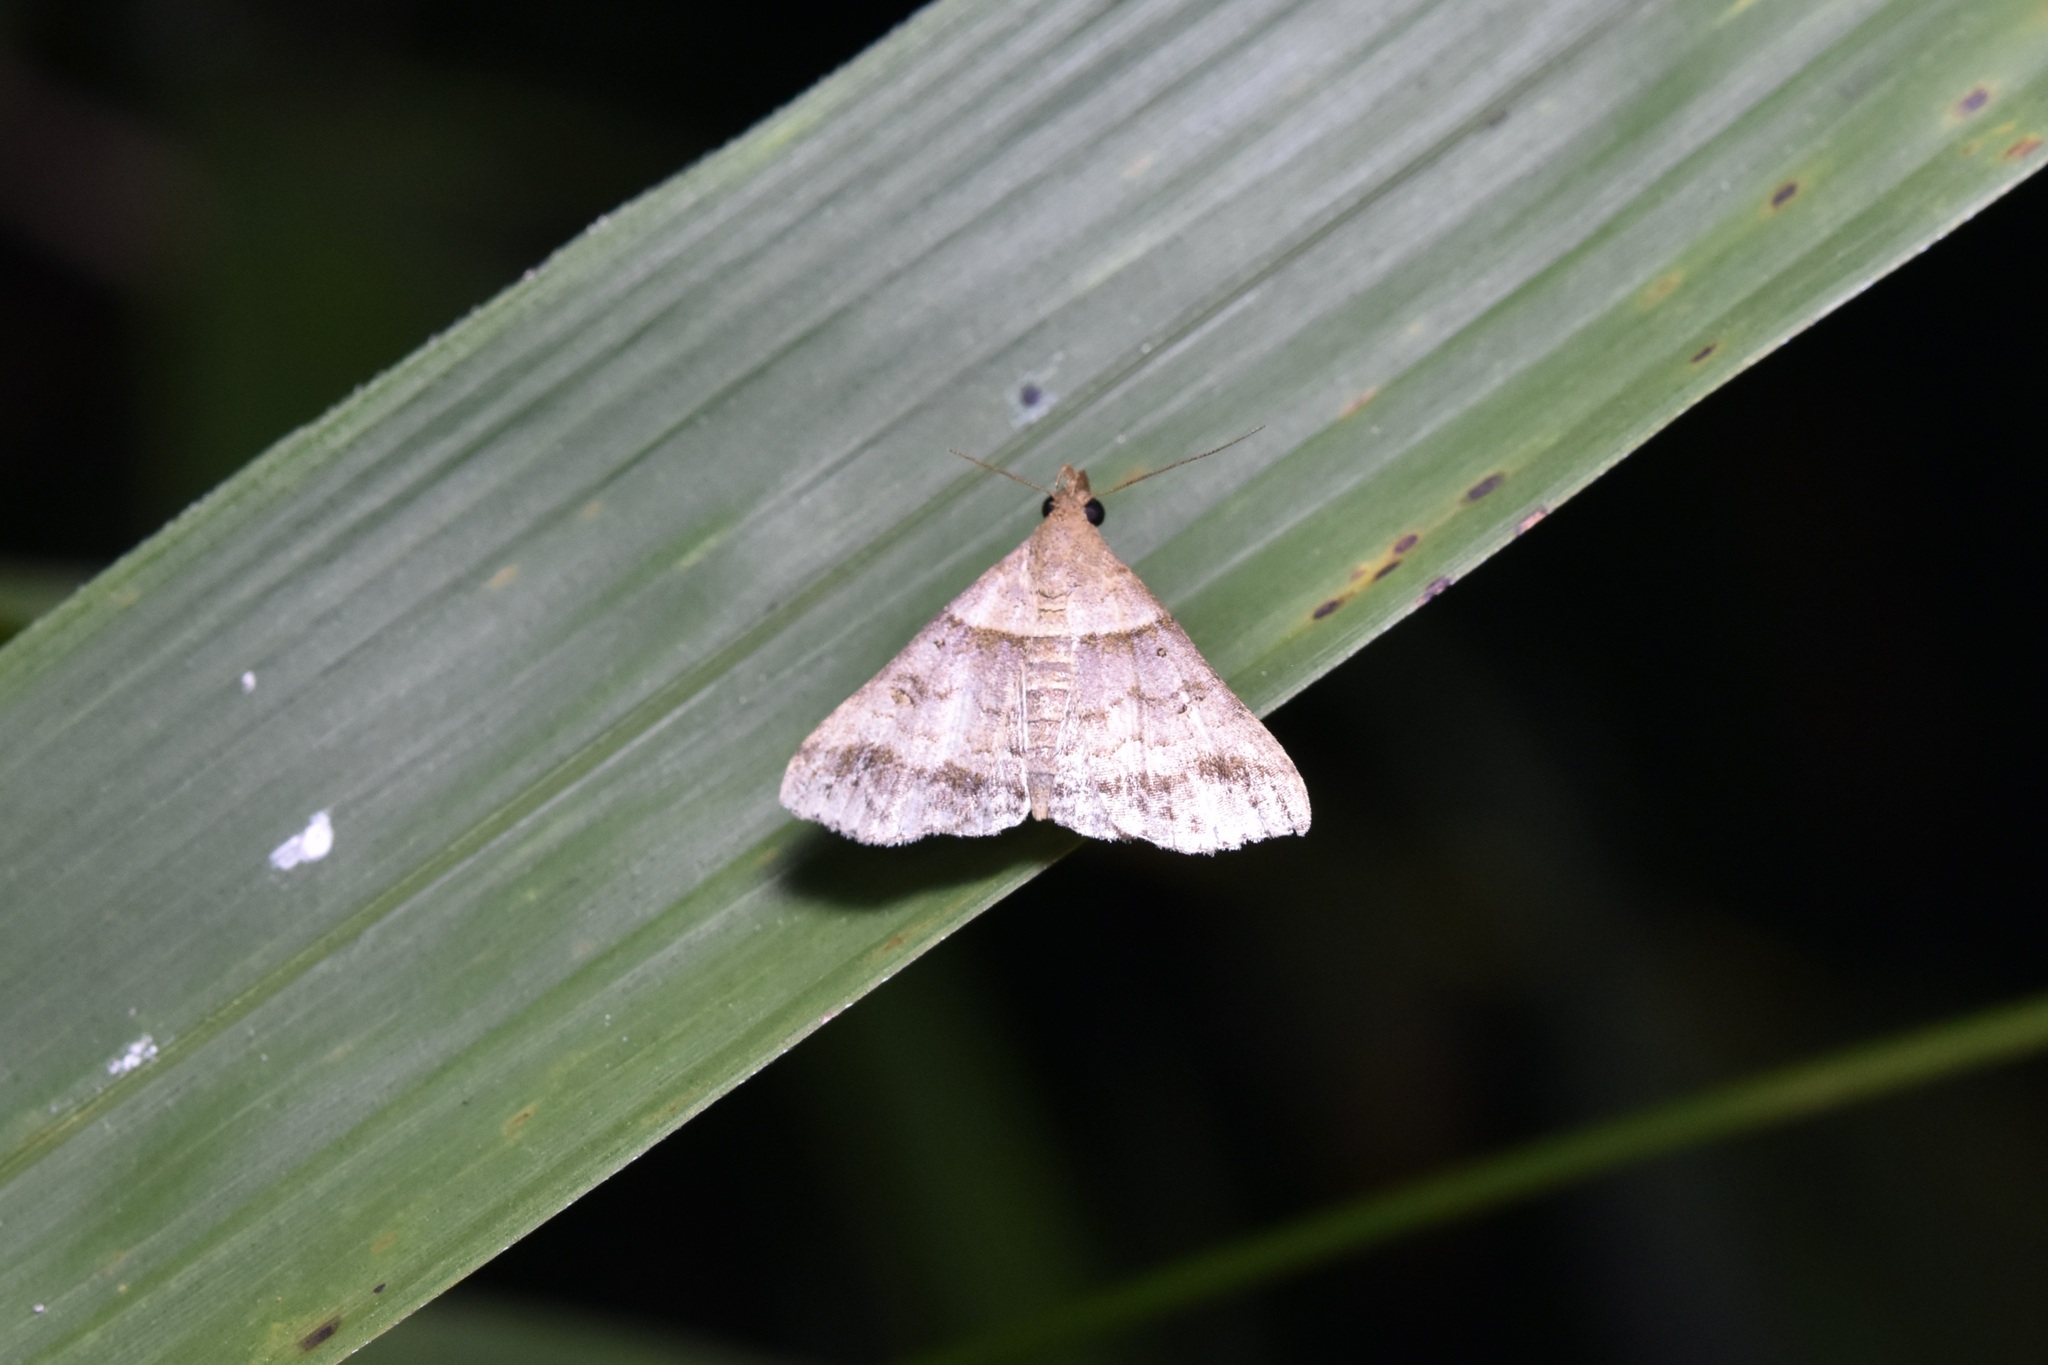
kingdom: Animalia
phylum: Arthropoda
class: Insecta
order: Lepidoptera
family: Erebidae
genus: Heterogramma
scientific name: Heterogramma circumflexalis
